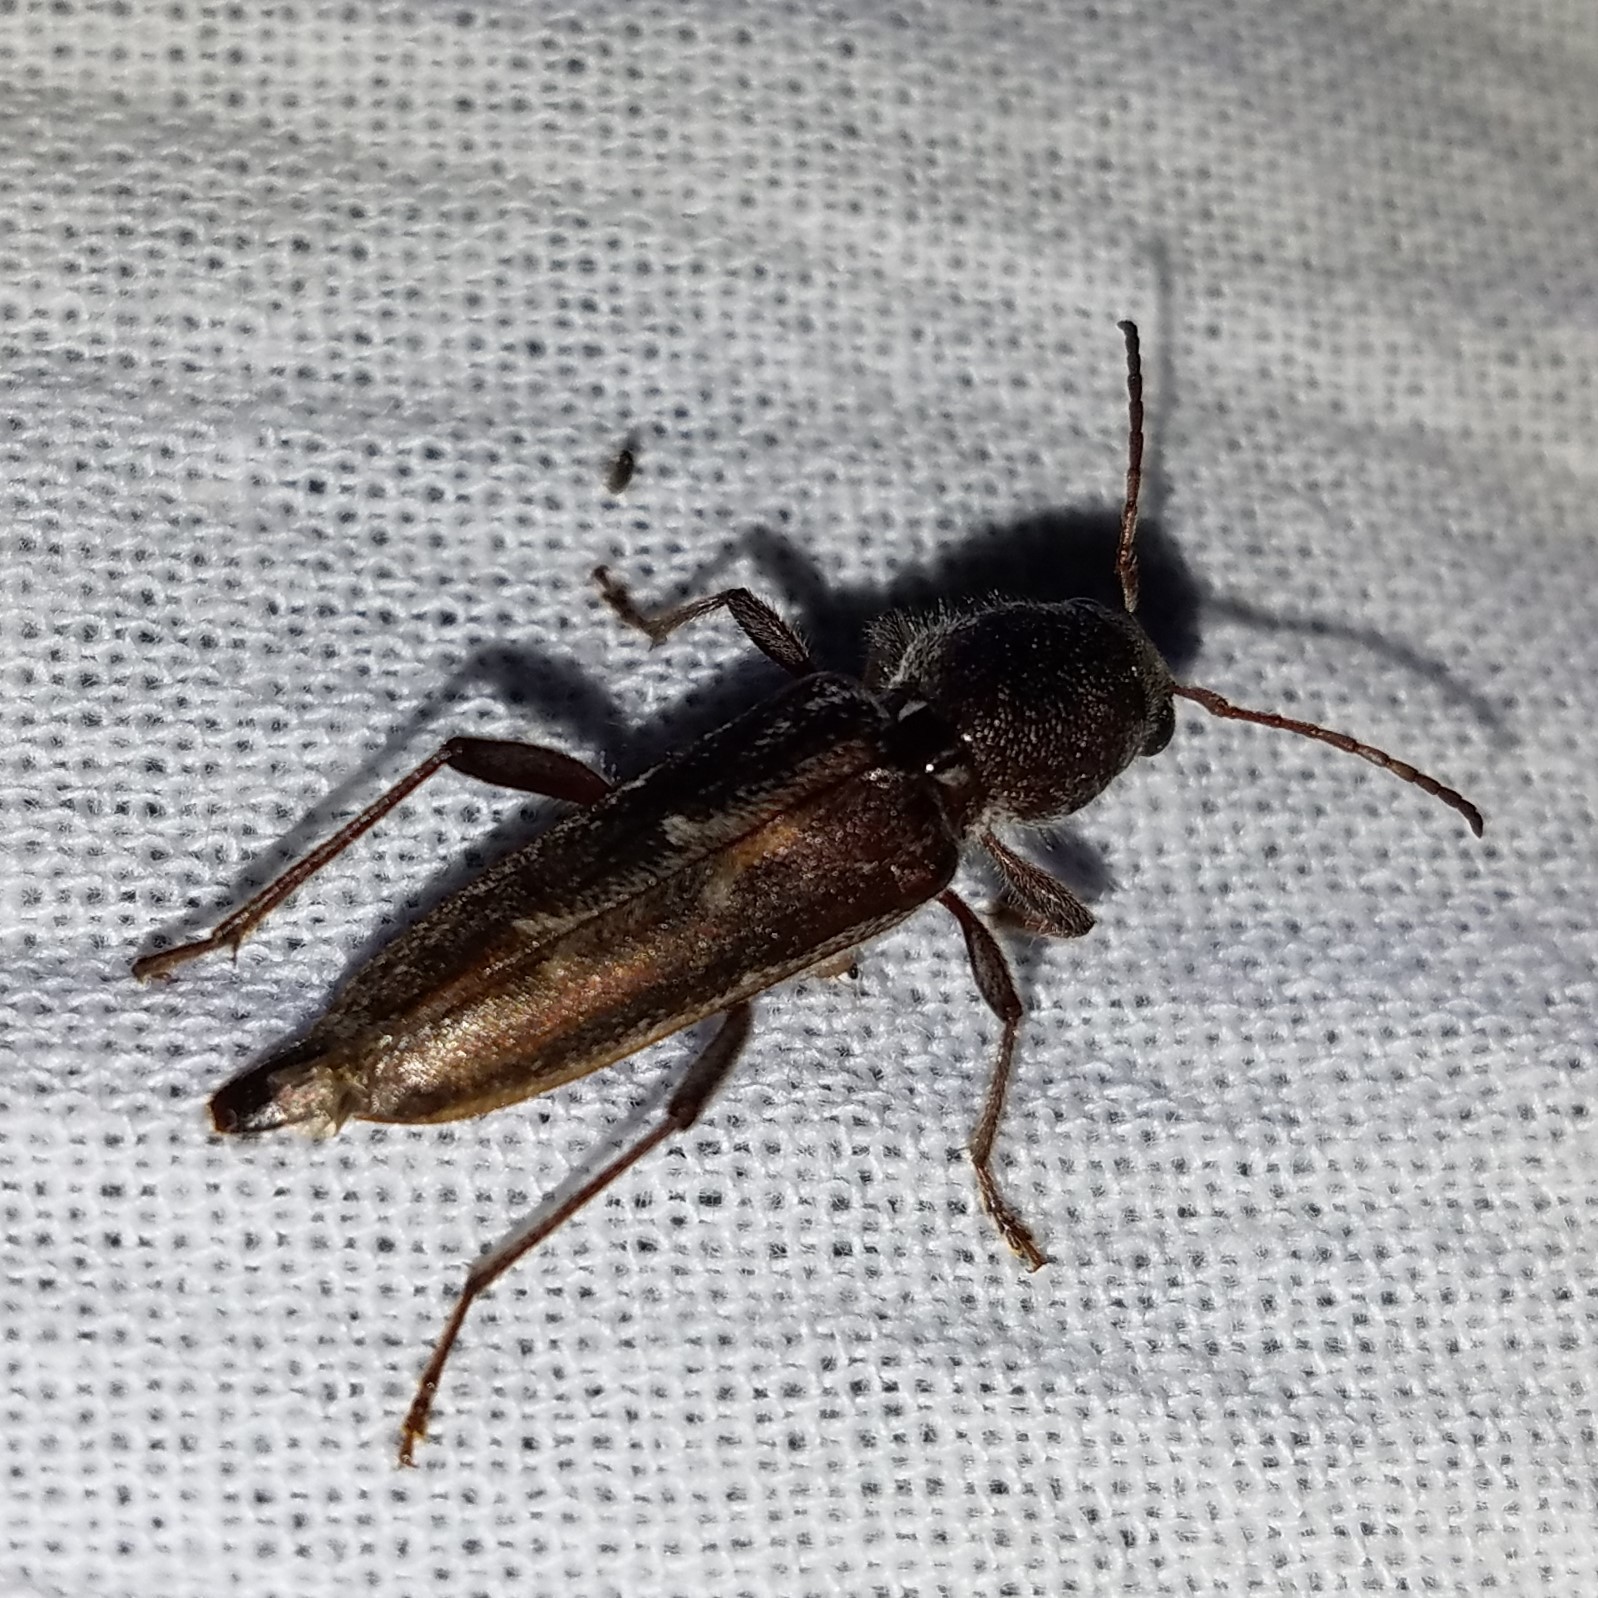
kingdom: Animalia
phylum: Arthropoda
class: Insecta
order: Coleoptera
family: Cerambycidae
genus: Xylotrechus
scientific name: Xylotrechus sagittatus
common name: Arrowhead borer
